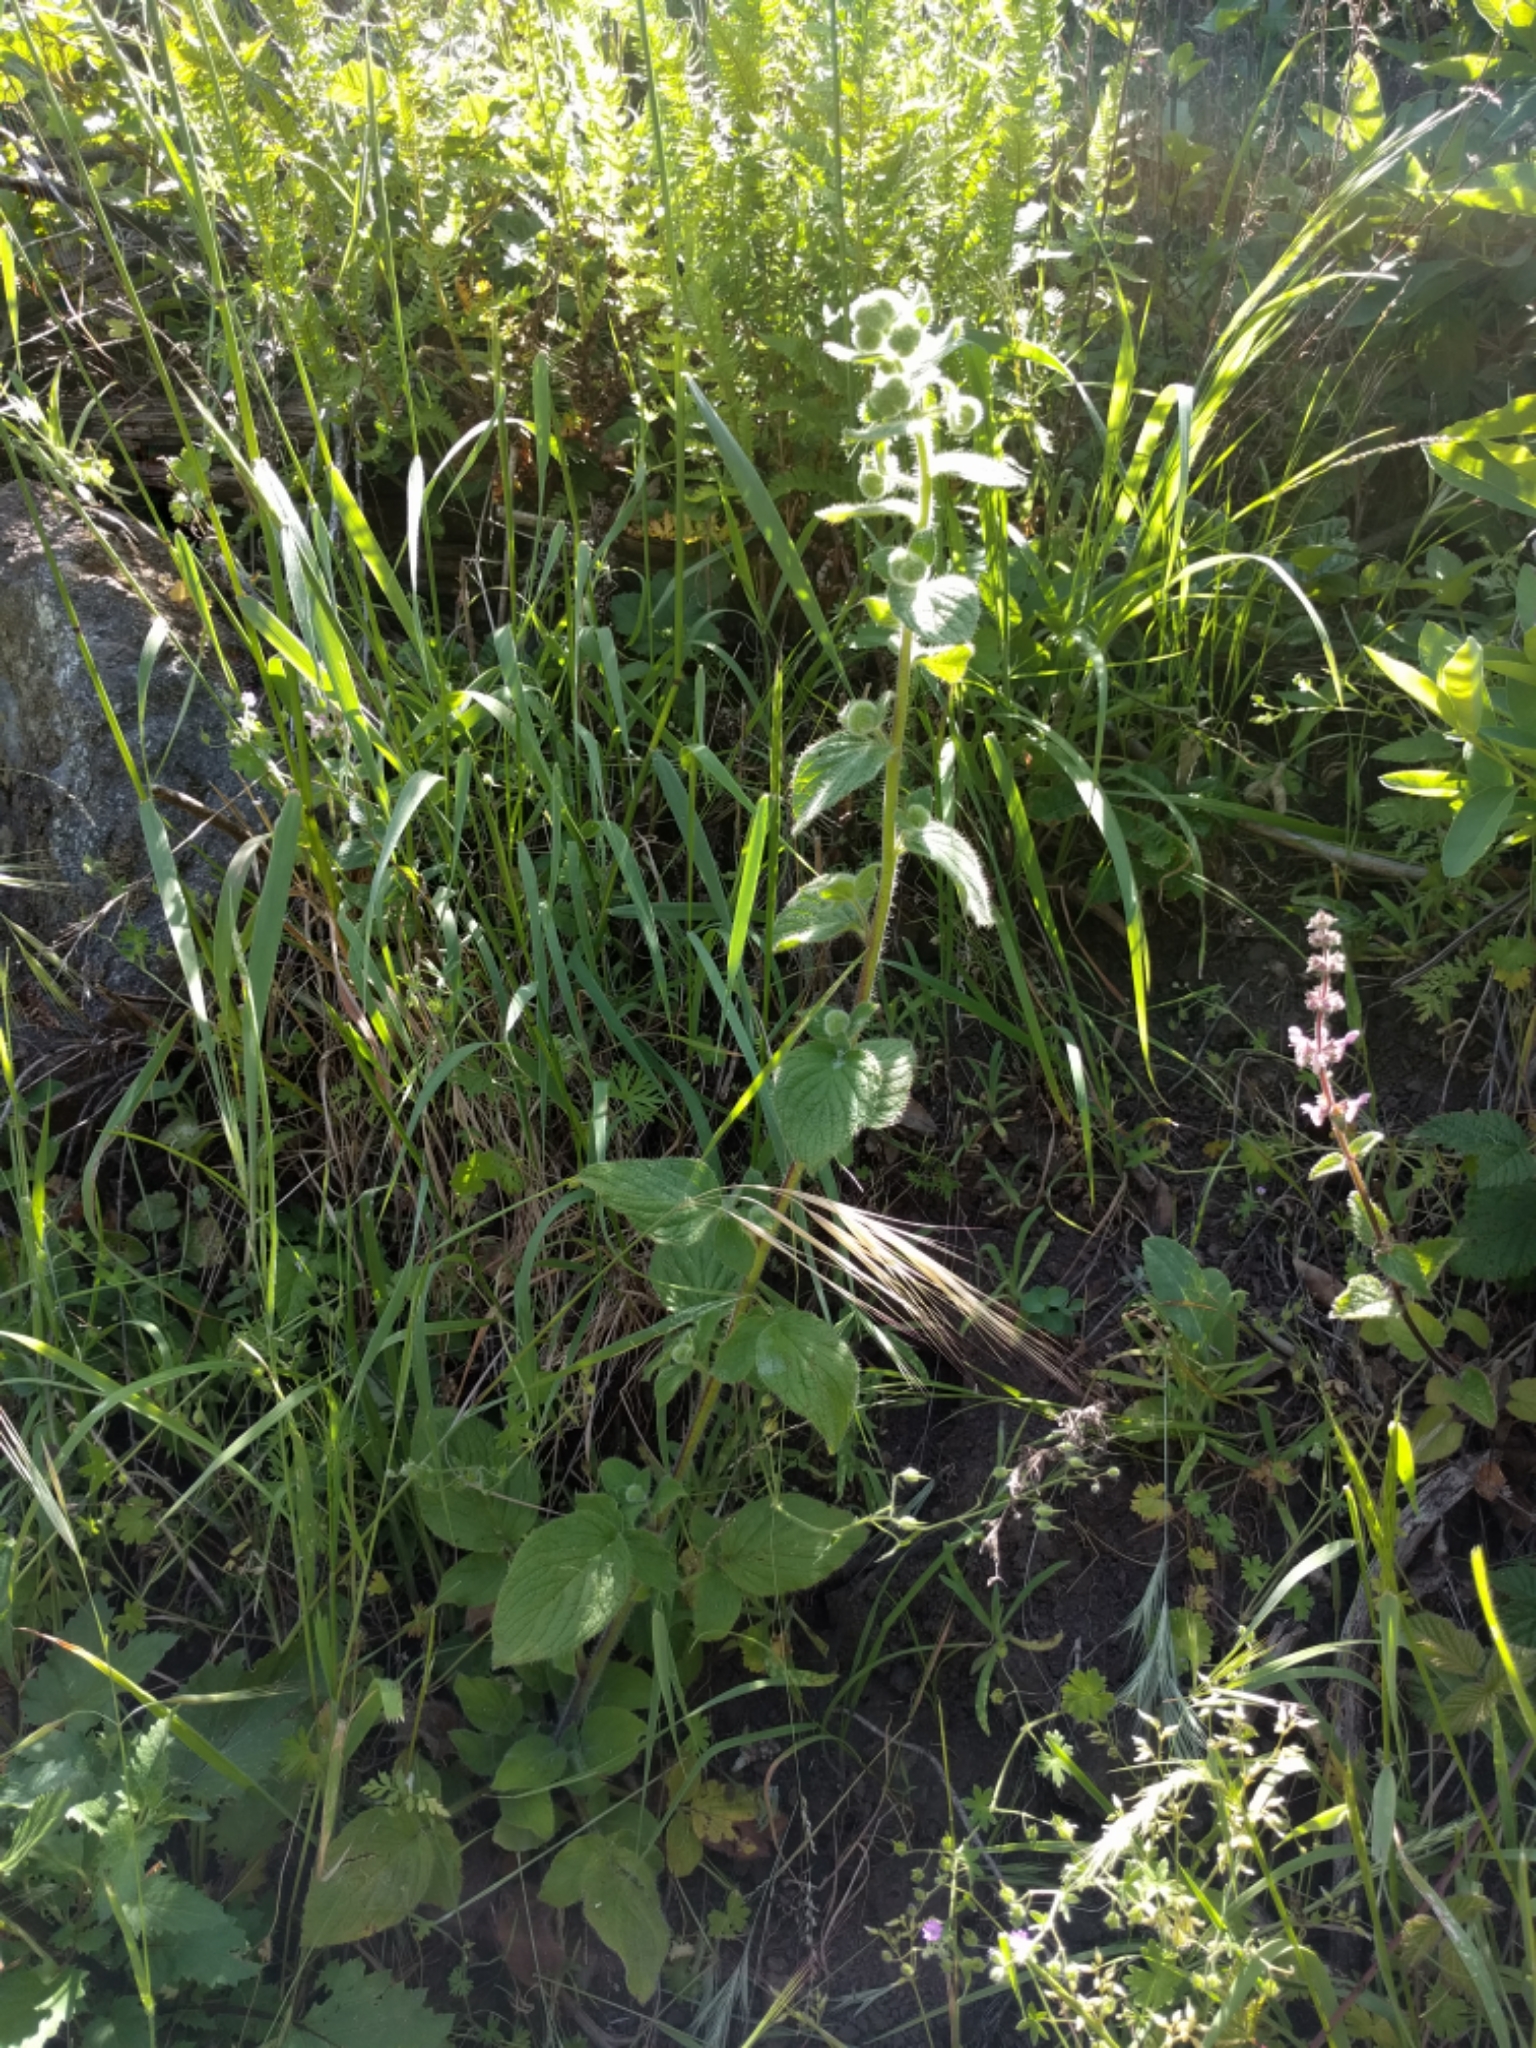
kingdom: Plantae
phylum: Tracheophyta
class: Magnoliopsida
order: Boraginales
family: Hydrophyllaceae
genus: Phacelia
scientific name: Phacelia nemoralis
